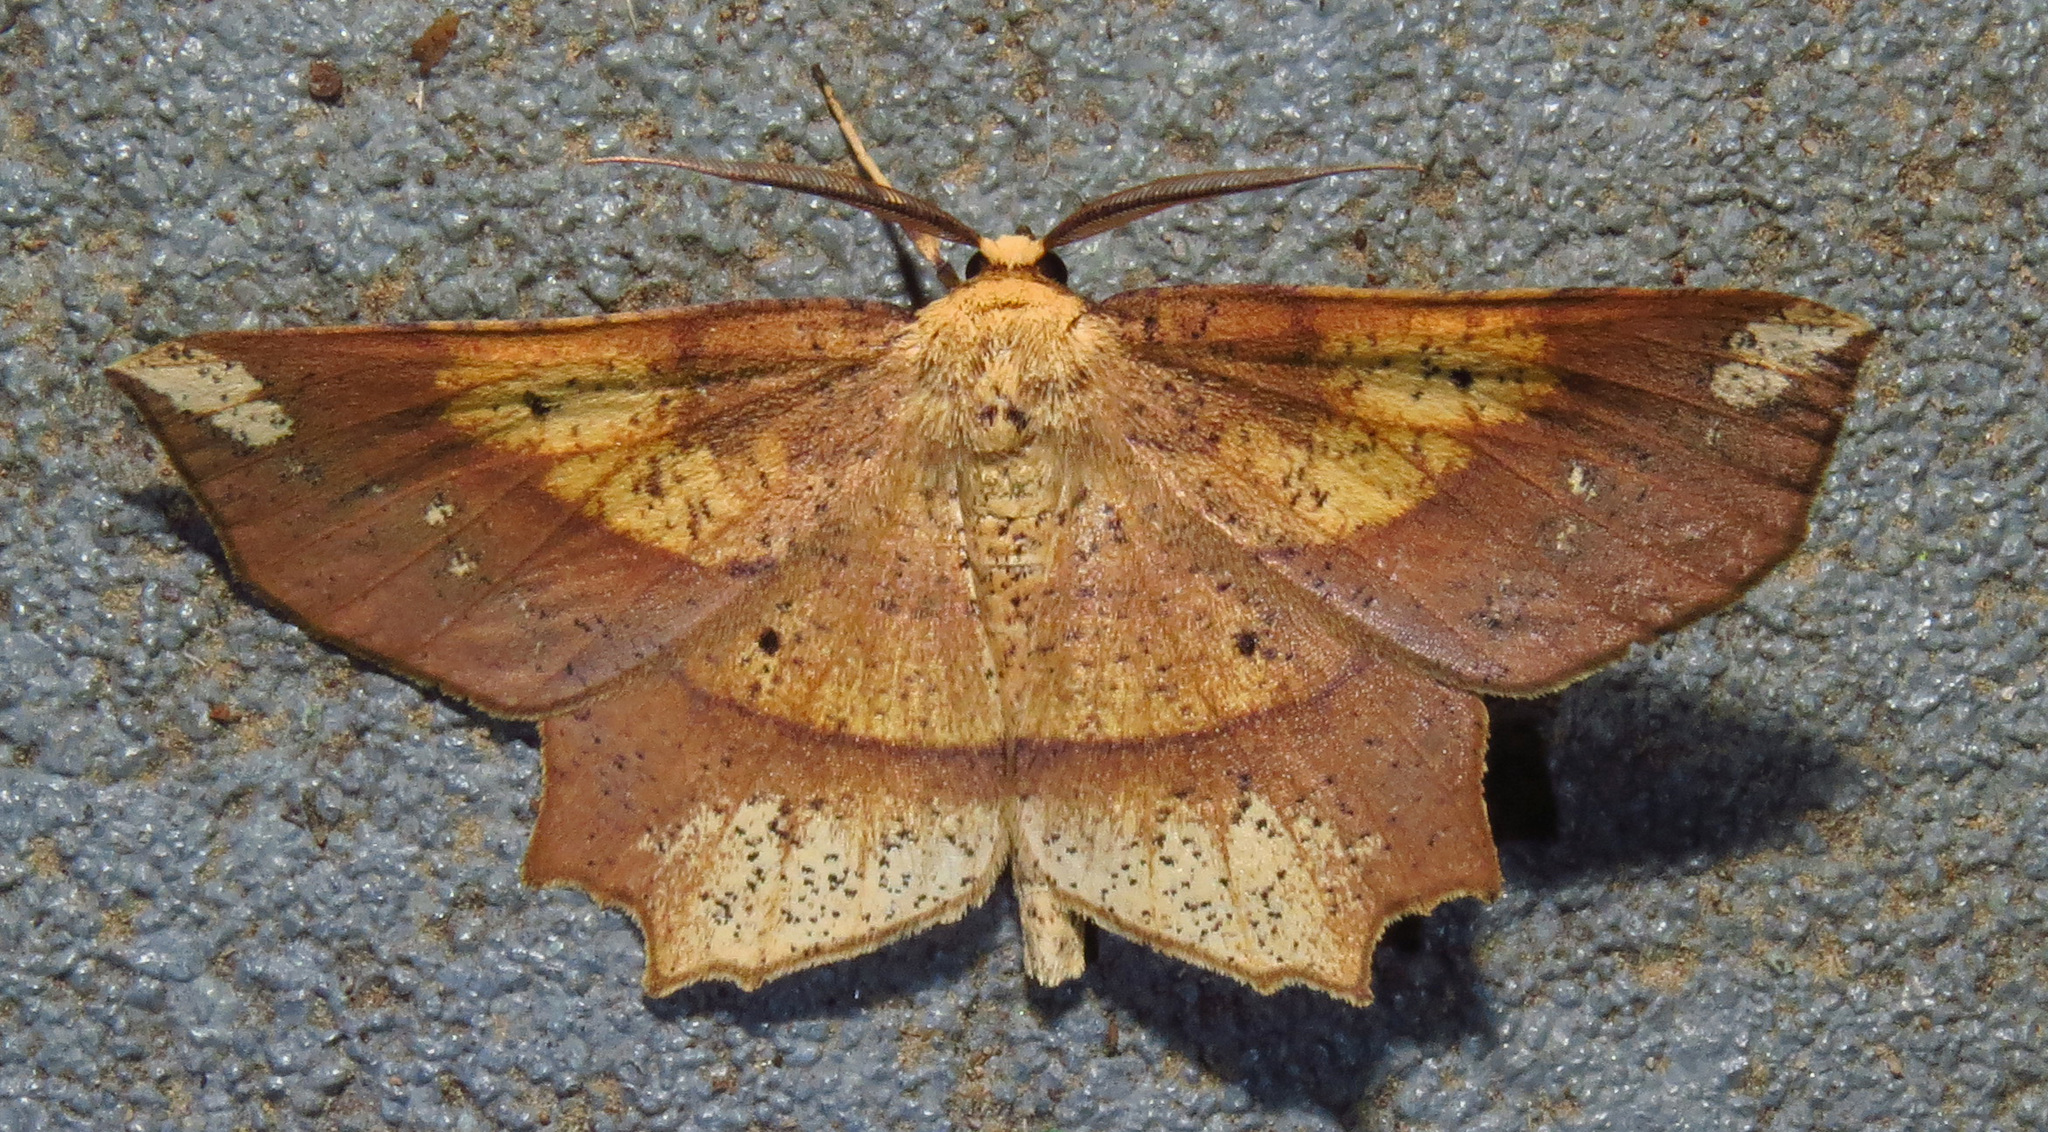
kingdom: Animalia
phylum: Arthropoda
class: Insecta
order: Lepidoptera
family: Geometridae
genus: Euchlaena
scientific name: Euchlaena amoenaria
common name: Deep yellow euchlaena
